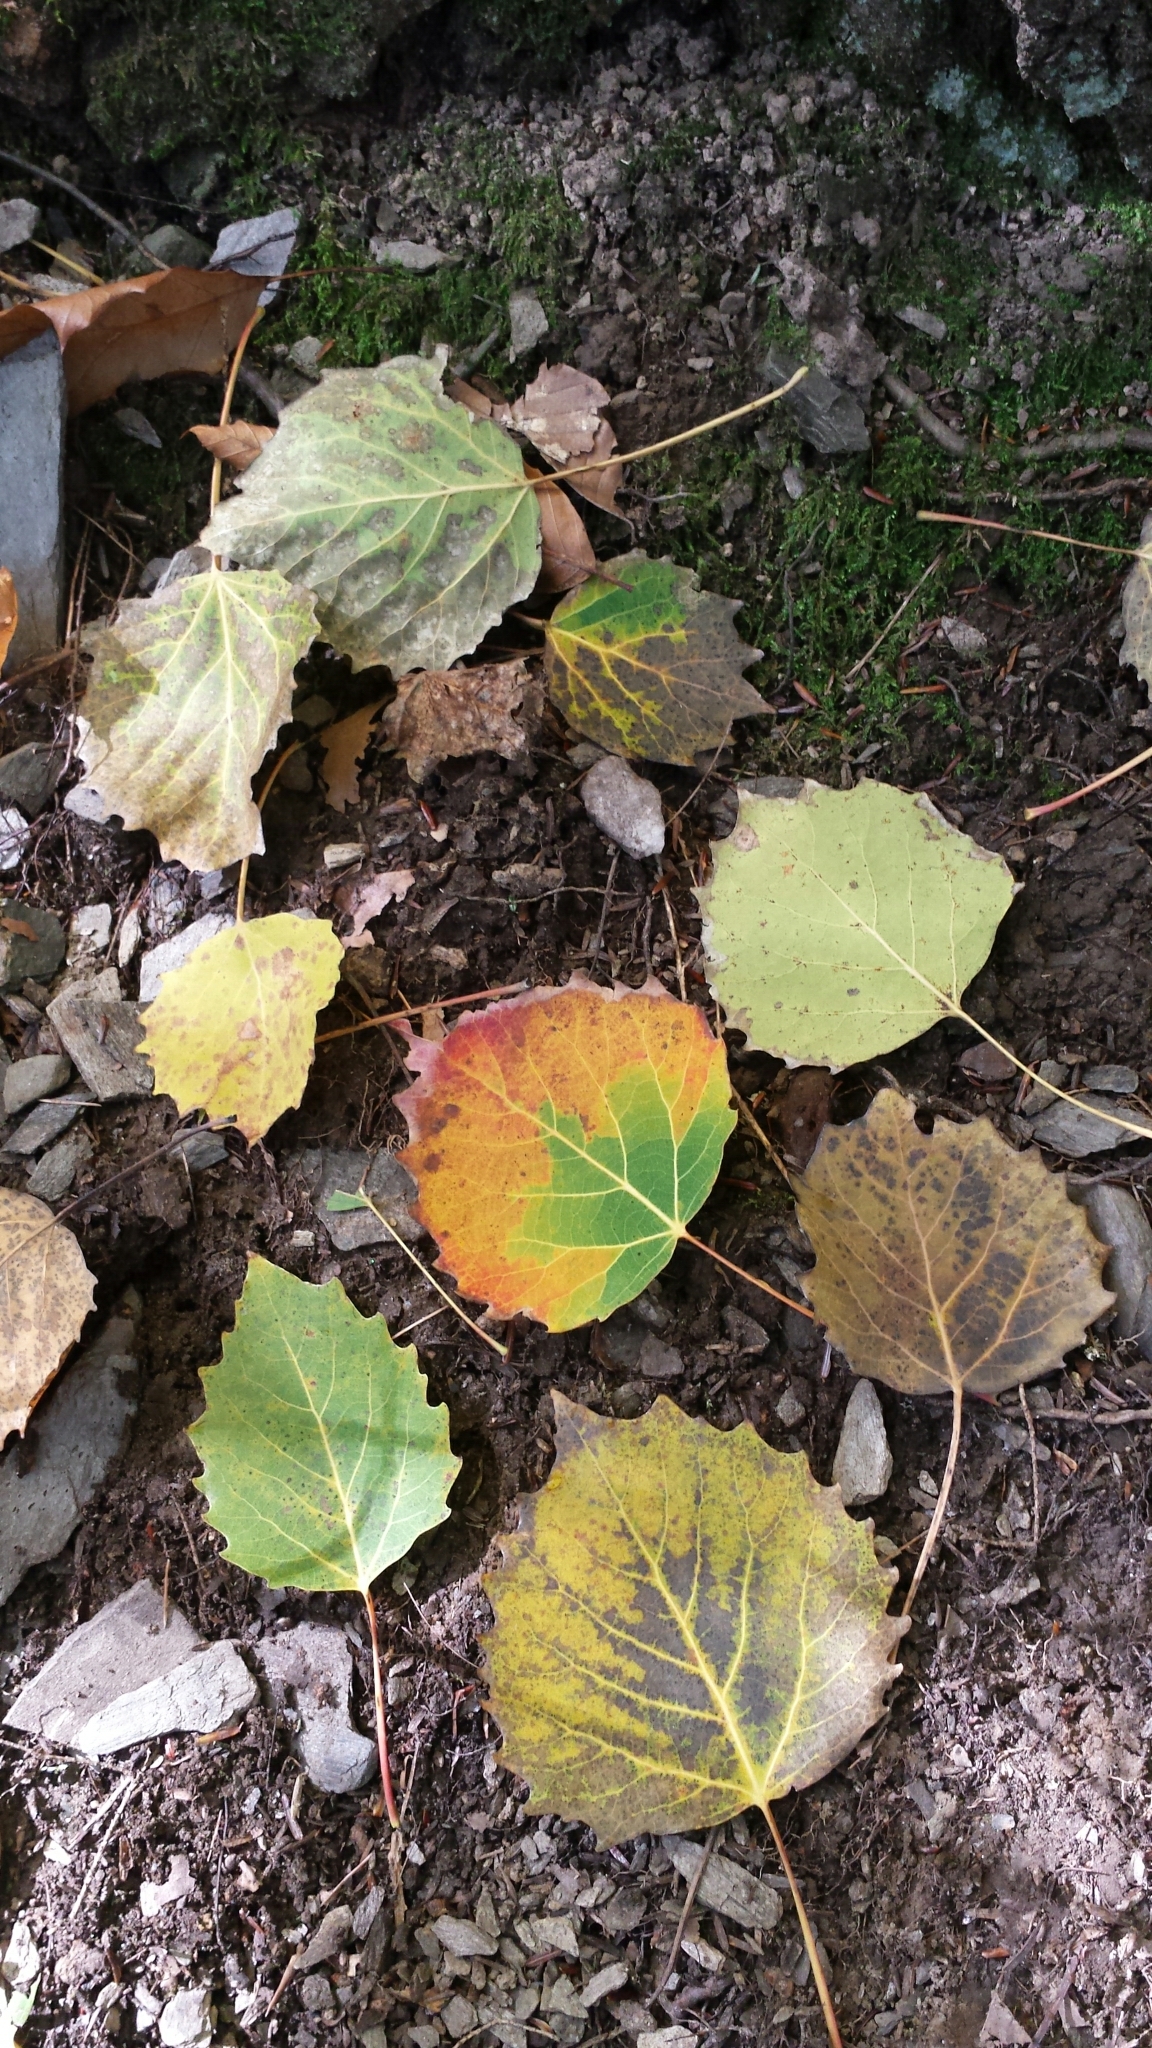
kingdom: Plantae
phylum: Tracheophyta
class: Magnoliopsida
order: Malpighiales
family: Salicaceae
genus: Populus
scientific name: Populus grandidentata
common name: Bigtooth aspen
